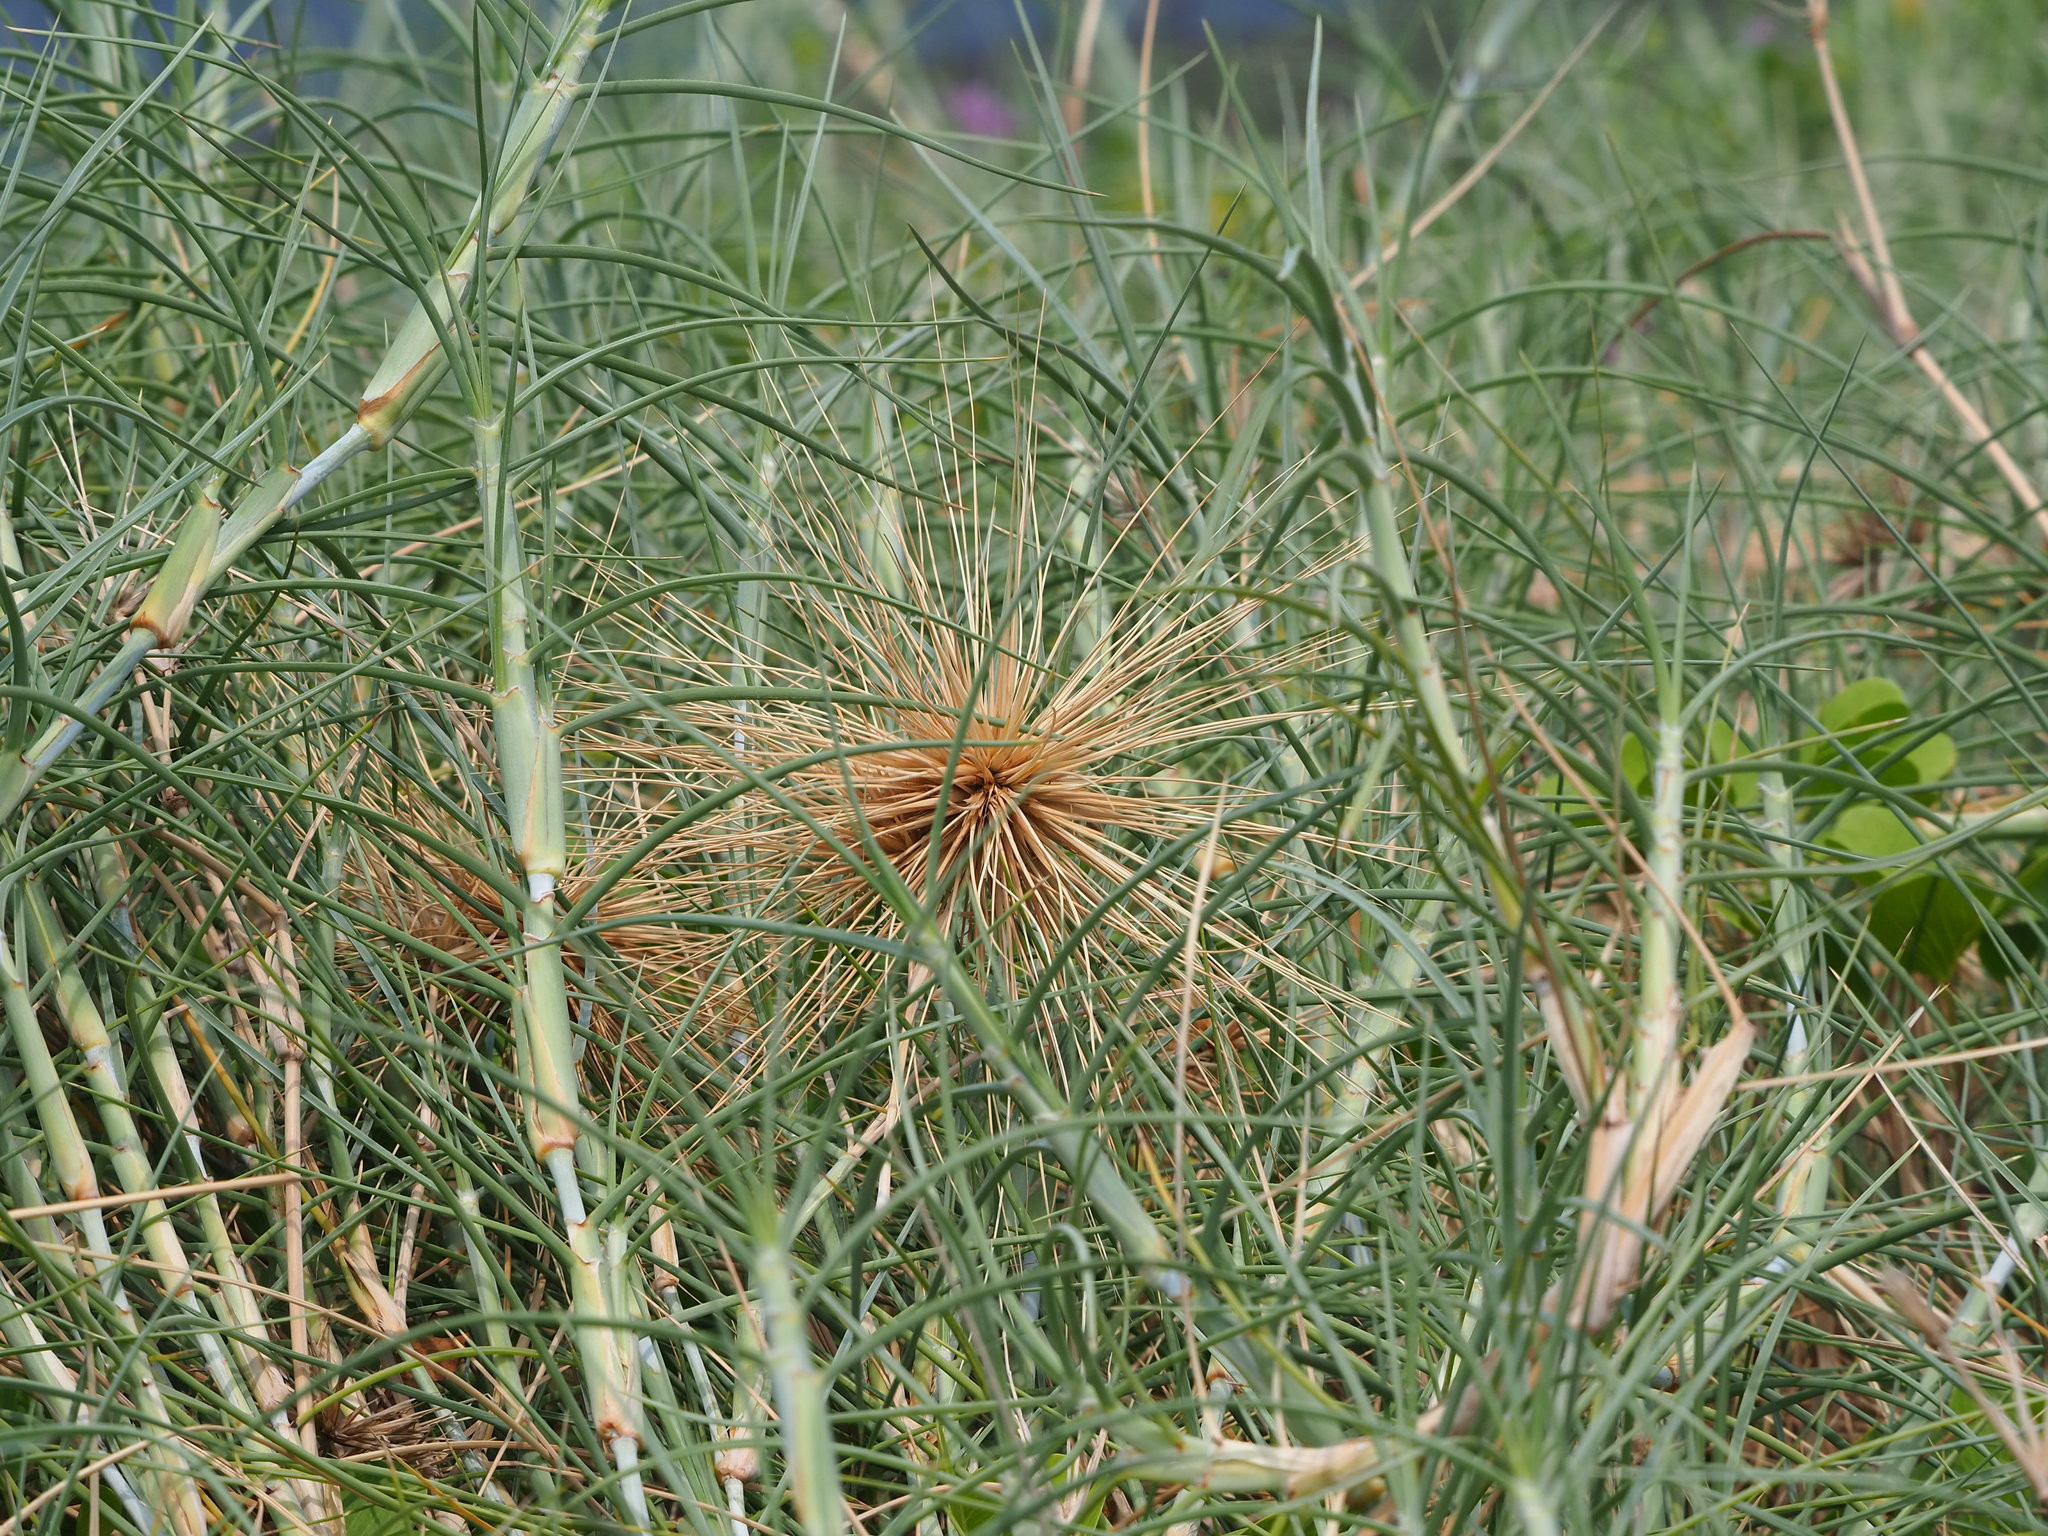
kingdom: Plantae
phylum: Tracheophyta
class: Liliopsida
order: Poales
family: Poaceae
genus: Spinifex
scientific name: Spinifex littoreus
